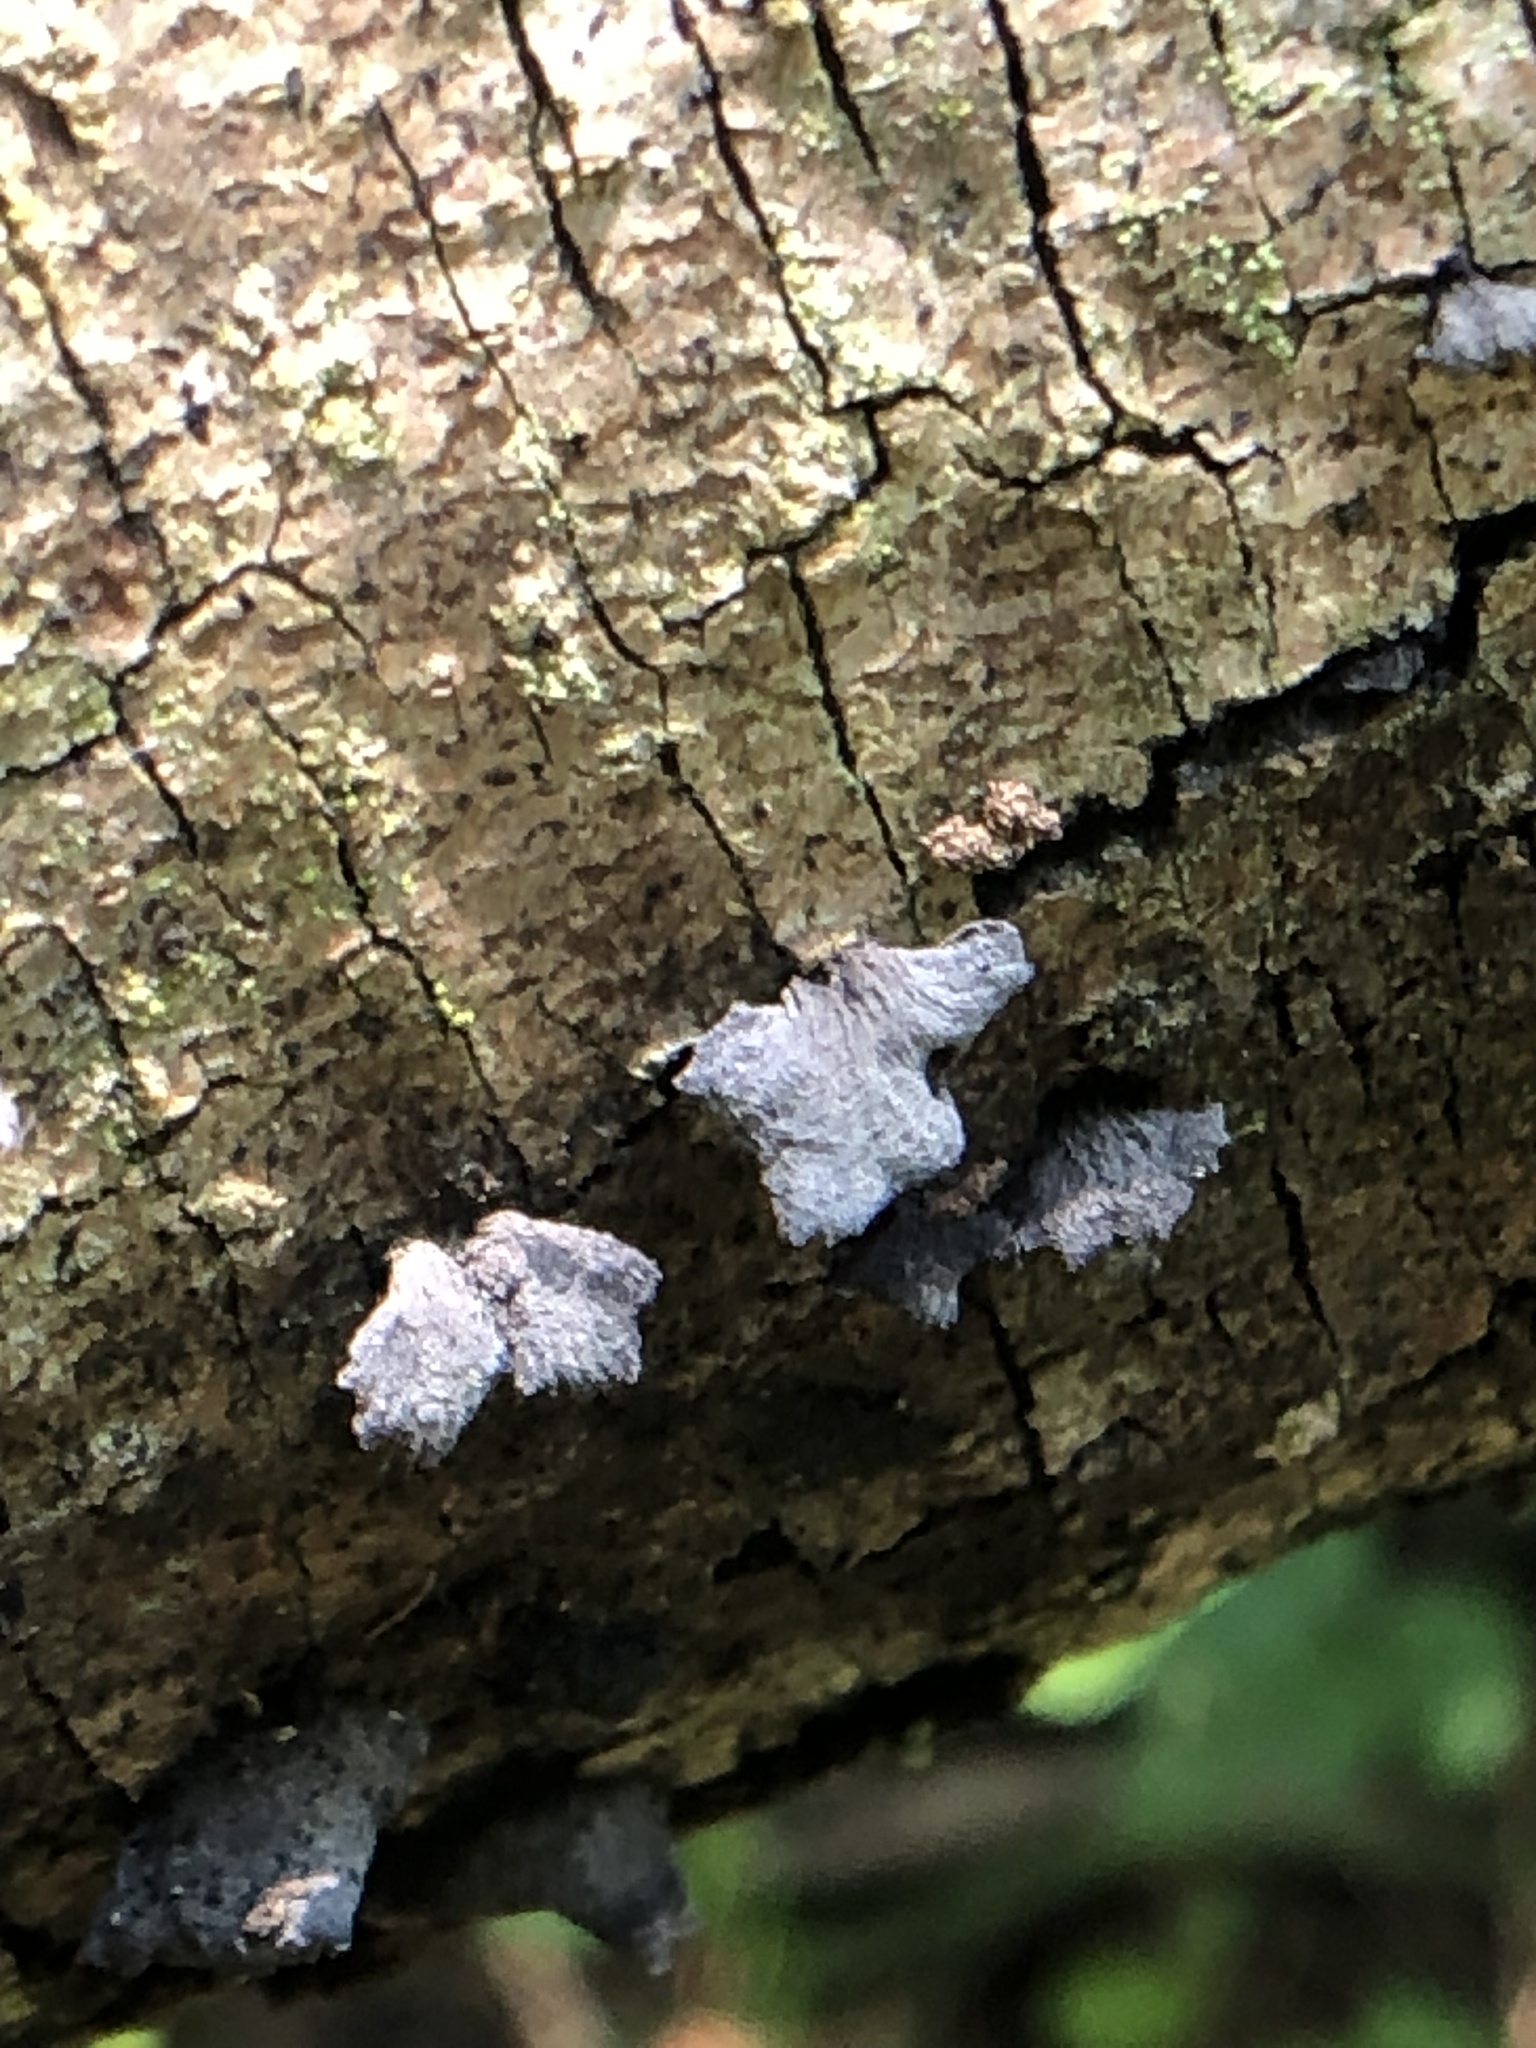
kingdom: Fungi
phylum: Basidiomycota
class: Agaricomycetes
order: Agaricales
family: Pleurotaceae
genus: Resupinatus
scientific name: Resupinatus applicatus
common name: Smoked oysterling
